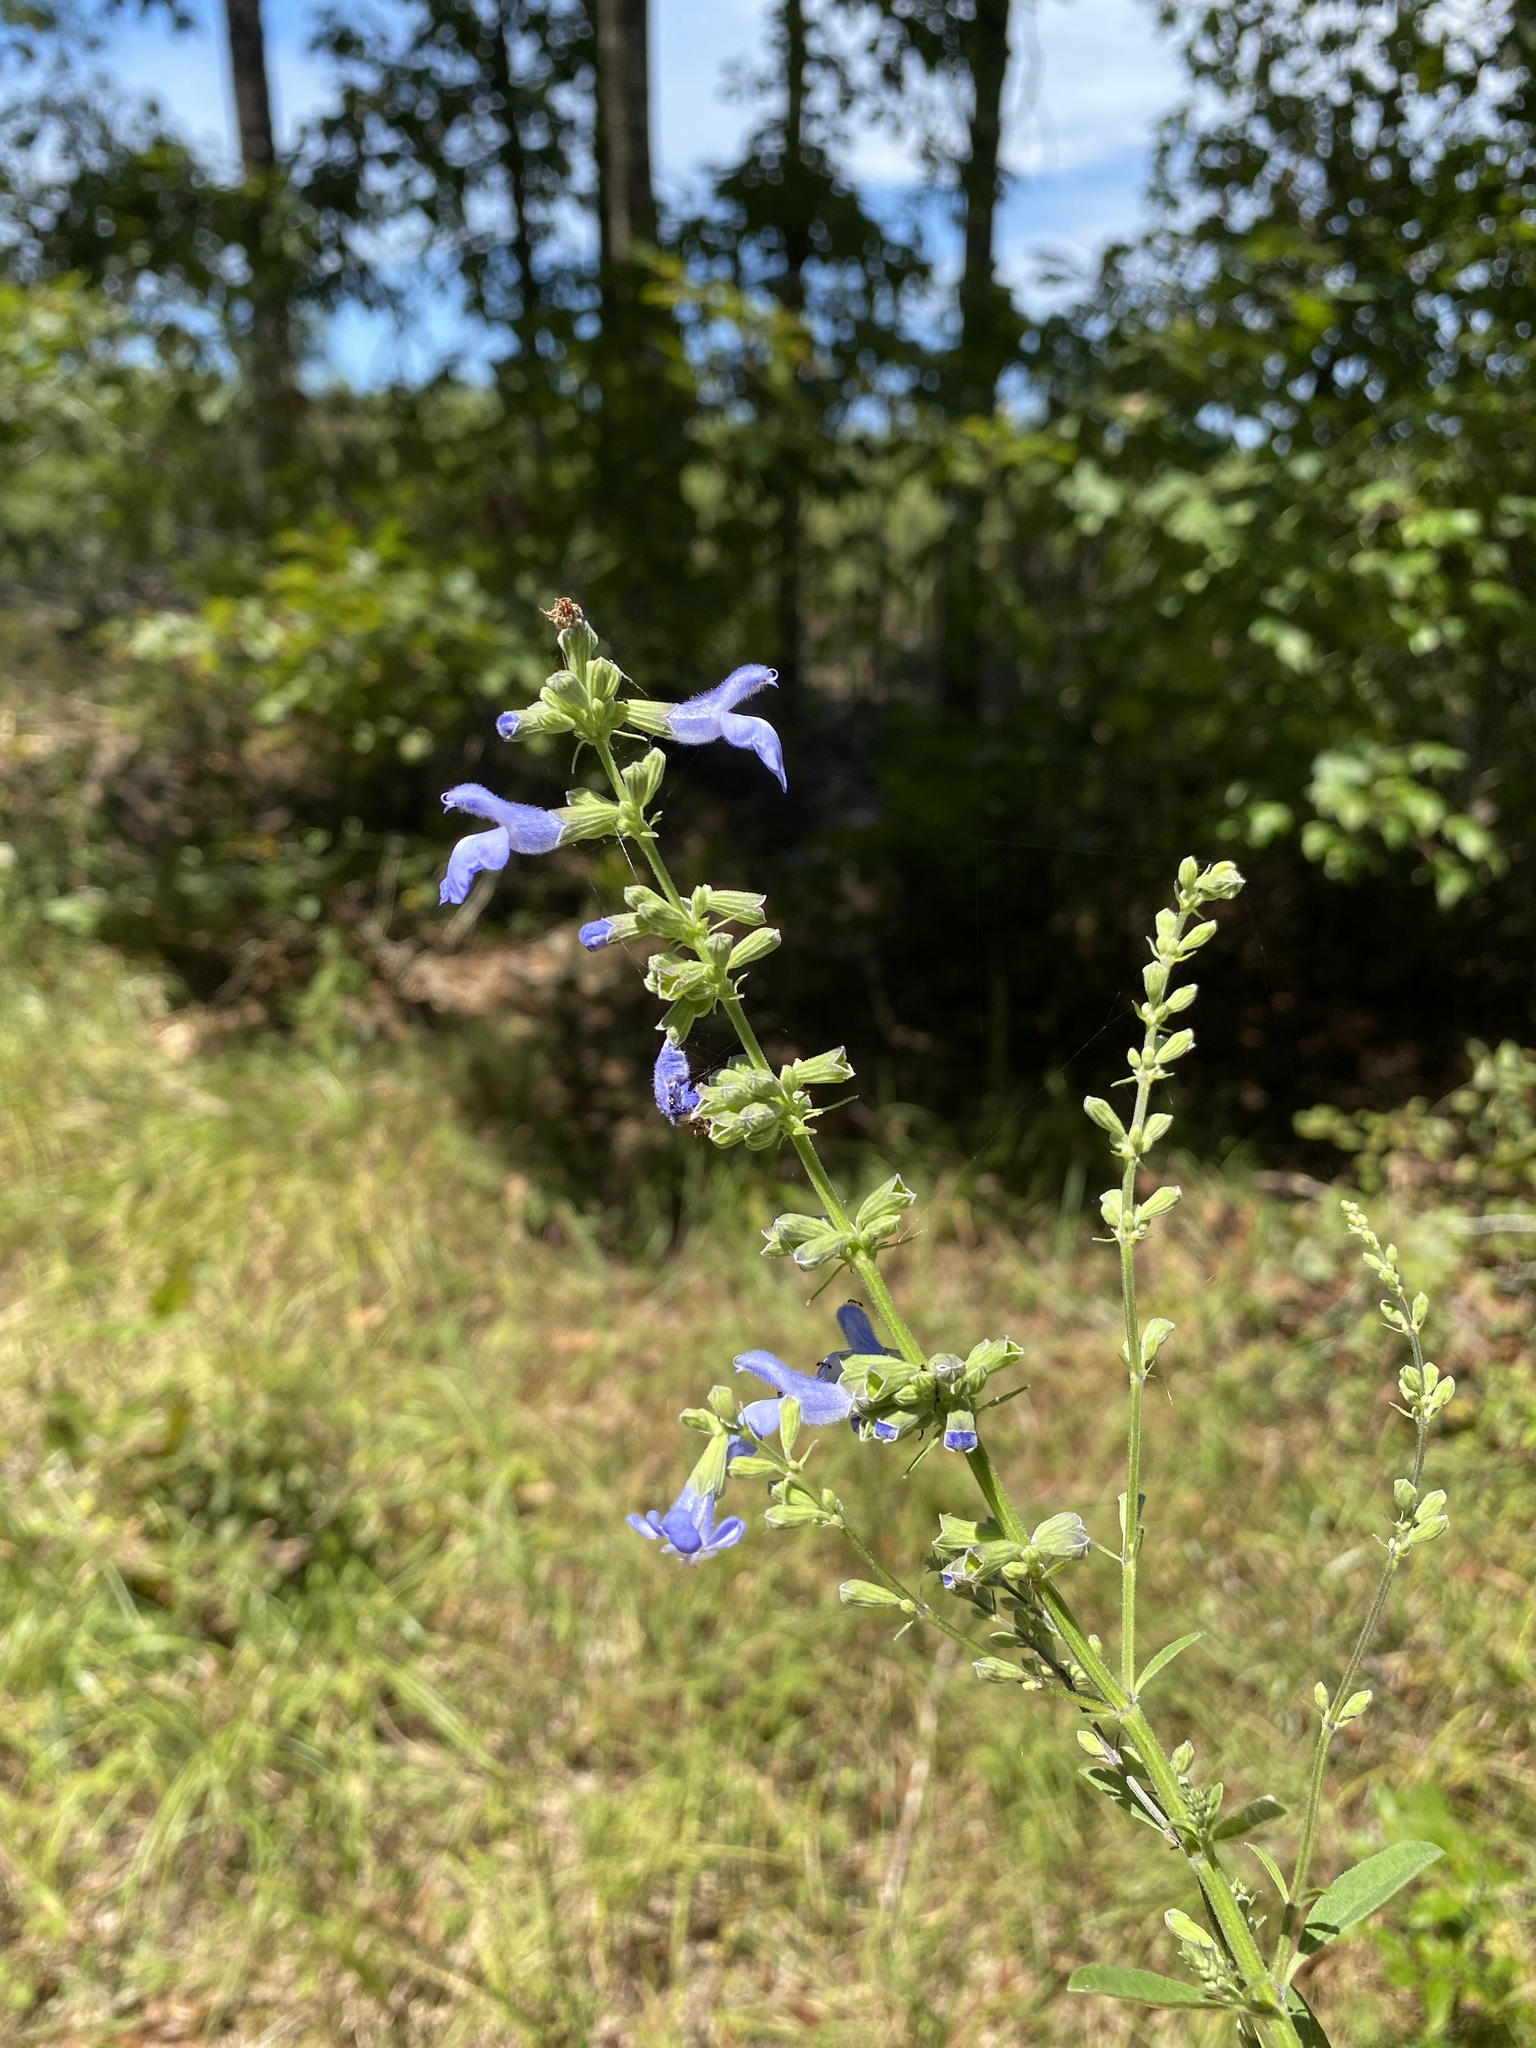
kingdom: Plantae
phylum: Tracheophyta
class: Magnoliopsida
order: Lamiales
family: Lamiaceae
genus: Salvia
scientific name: Salvia azurea
